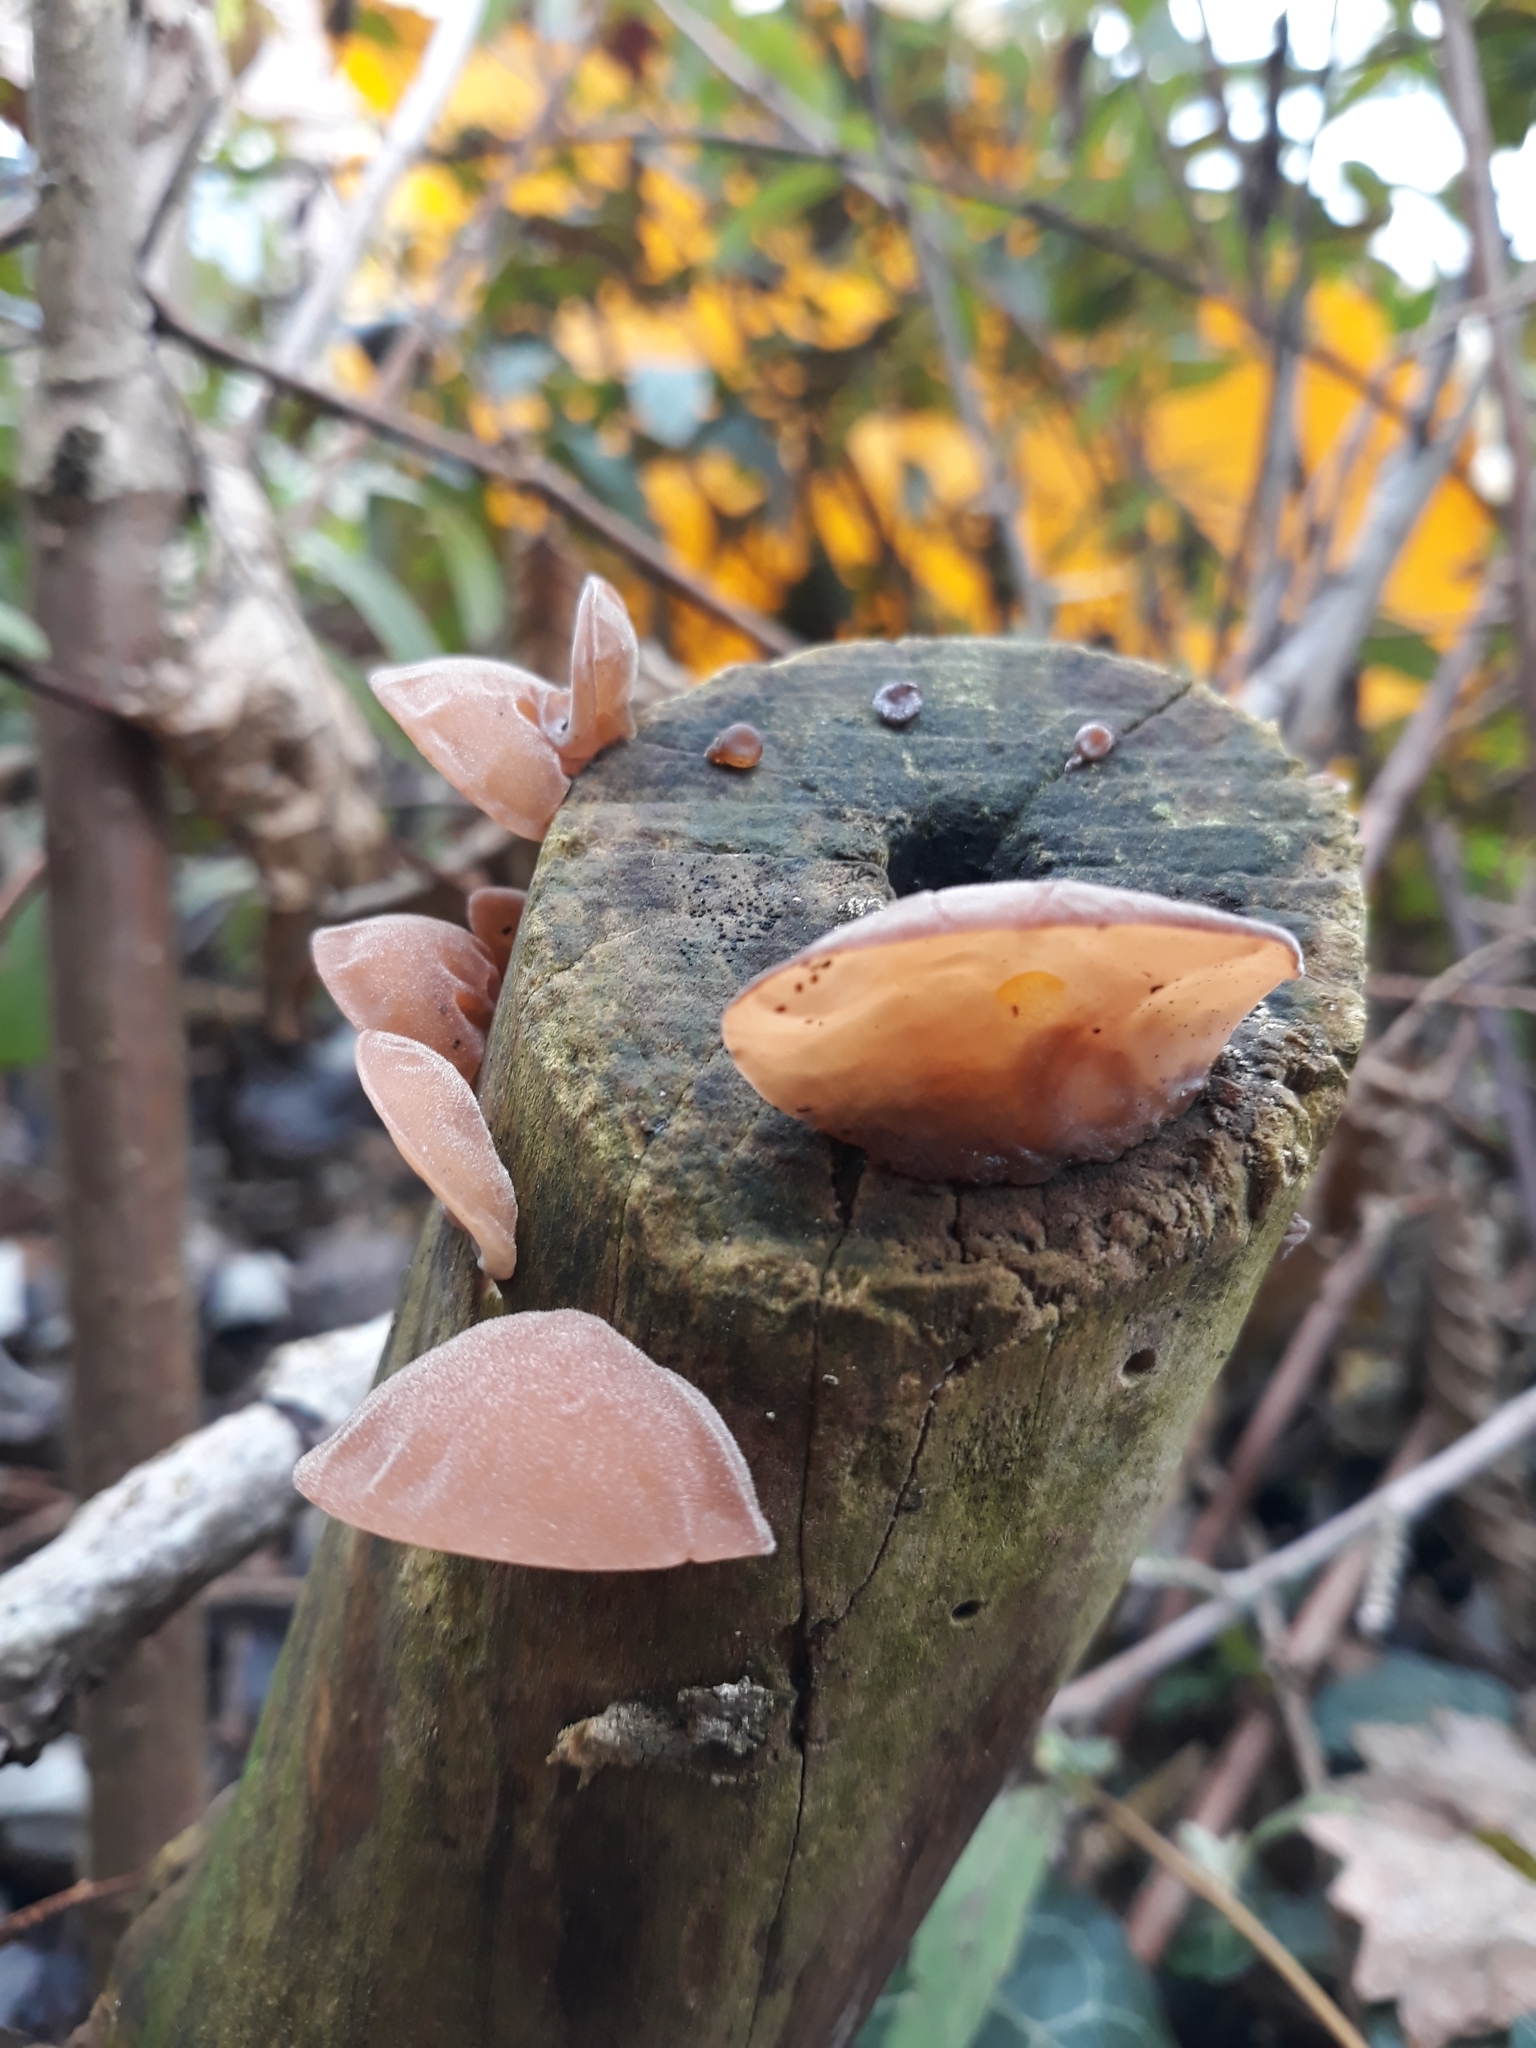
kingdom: Fungi
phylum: Basidiomycota
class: Agaricomycetes
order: Auriculariales
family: Auriculariaceae
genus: Auricularia
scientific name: Auricularia auricula-judae
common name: Jelly ear
